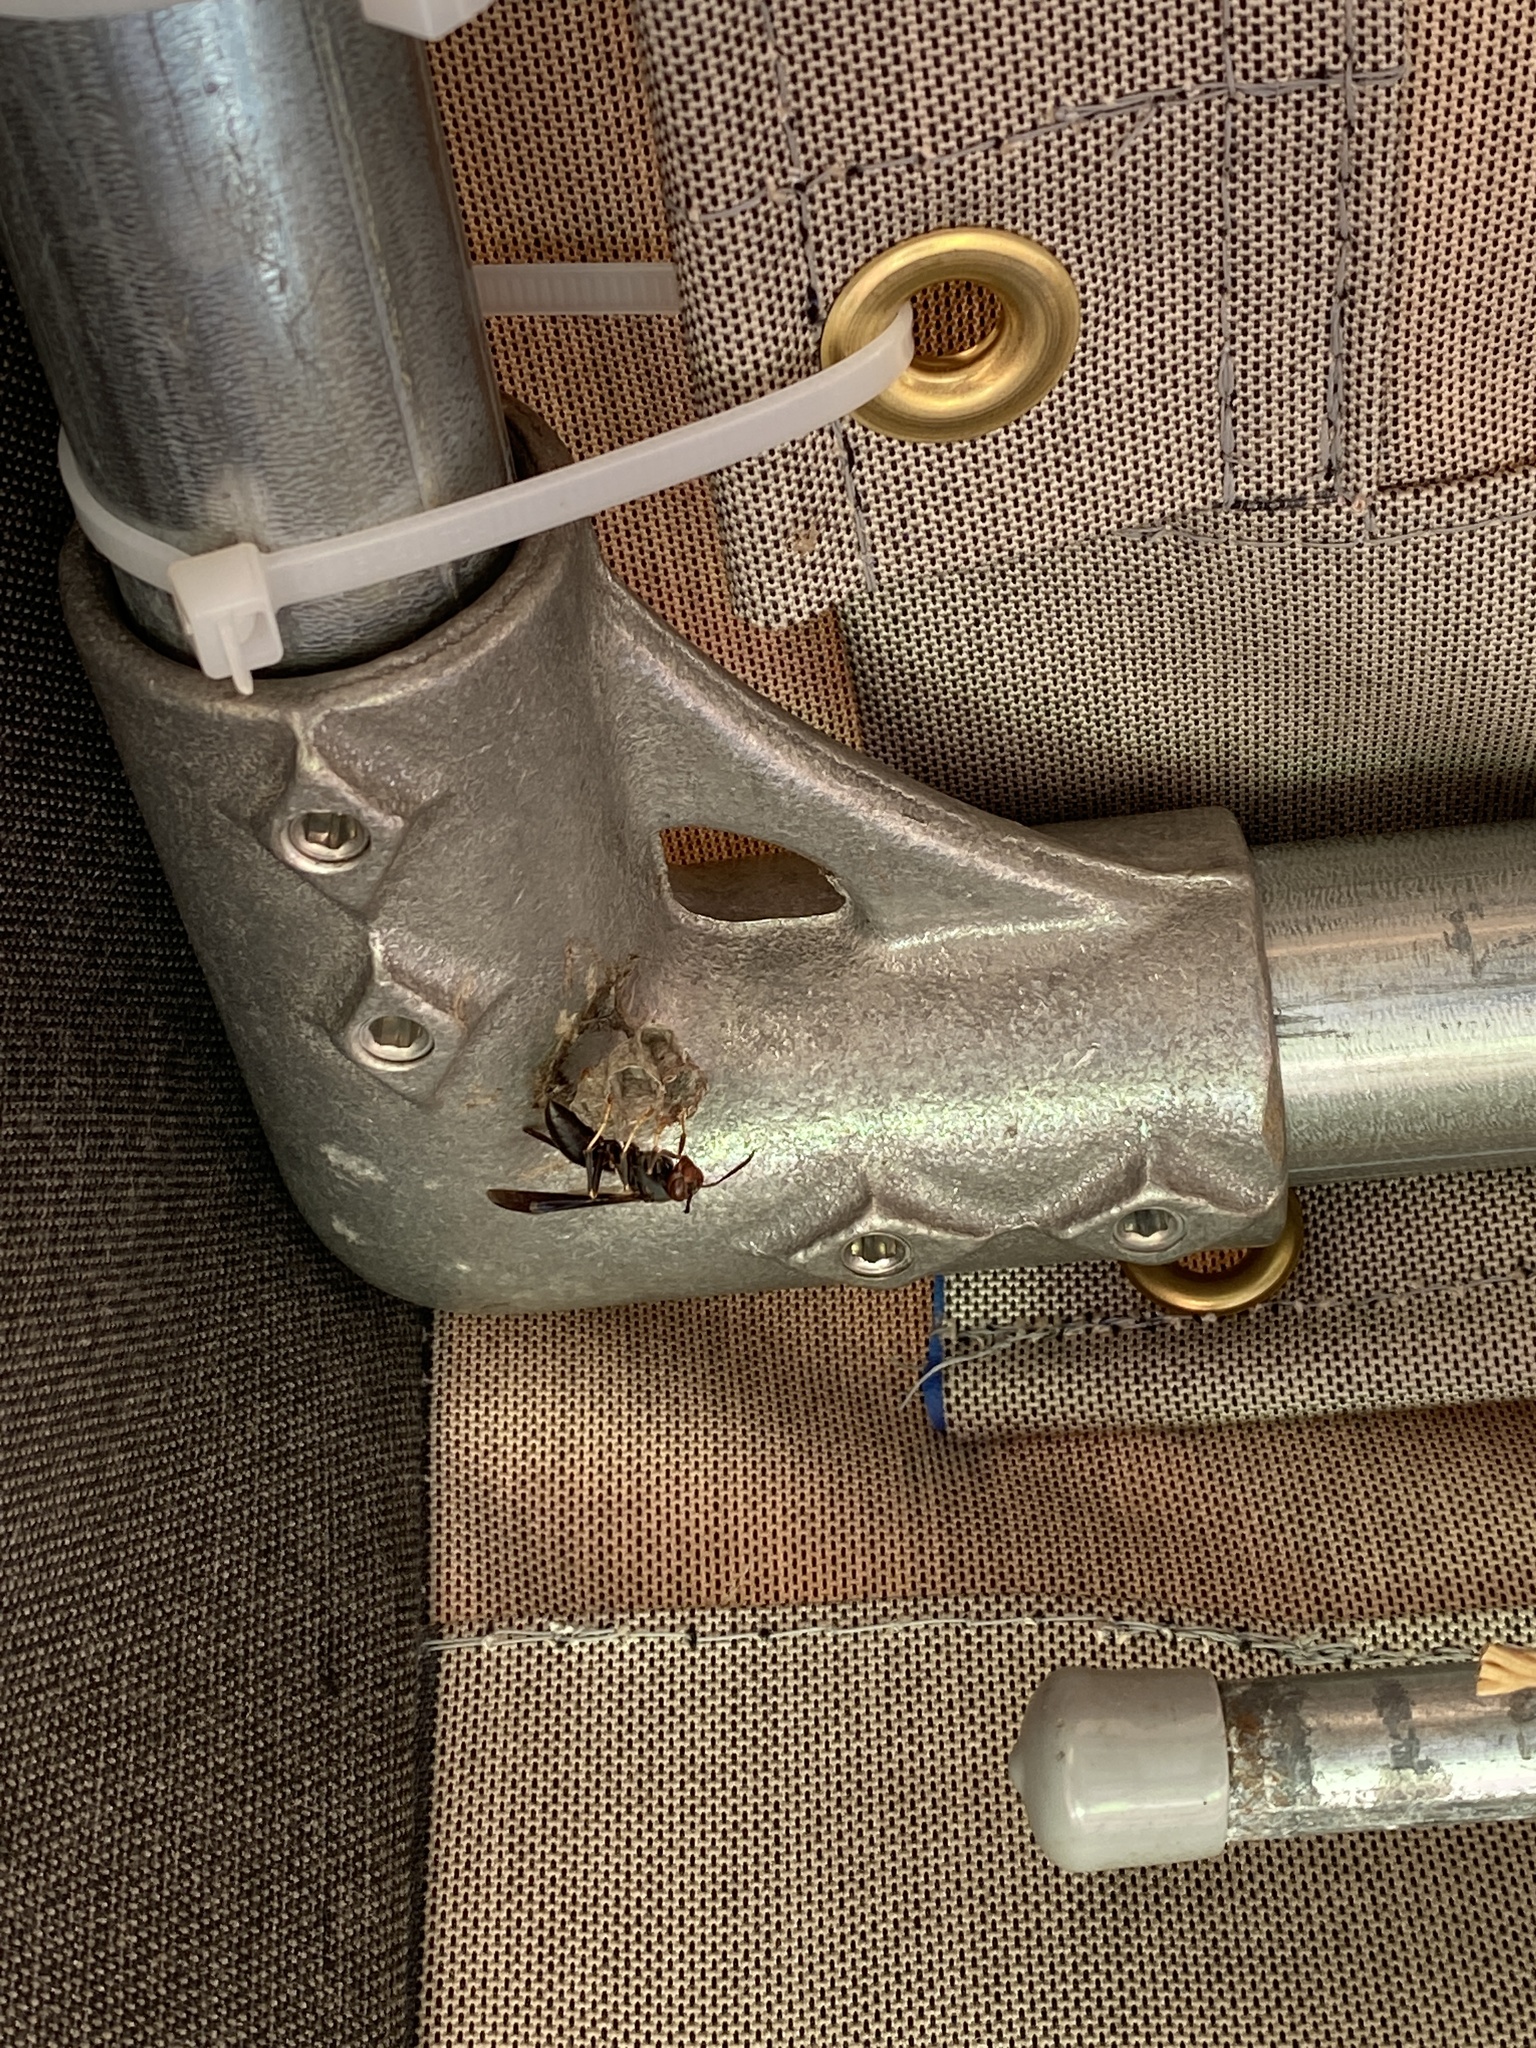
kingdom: Animalia
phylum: Arthropoda
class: Insecta
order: Hymenoptera
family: Vespidae
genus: Fuscopolistes
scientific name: Fuscopolistes
